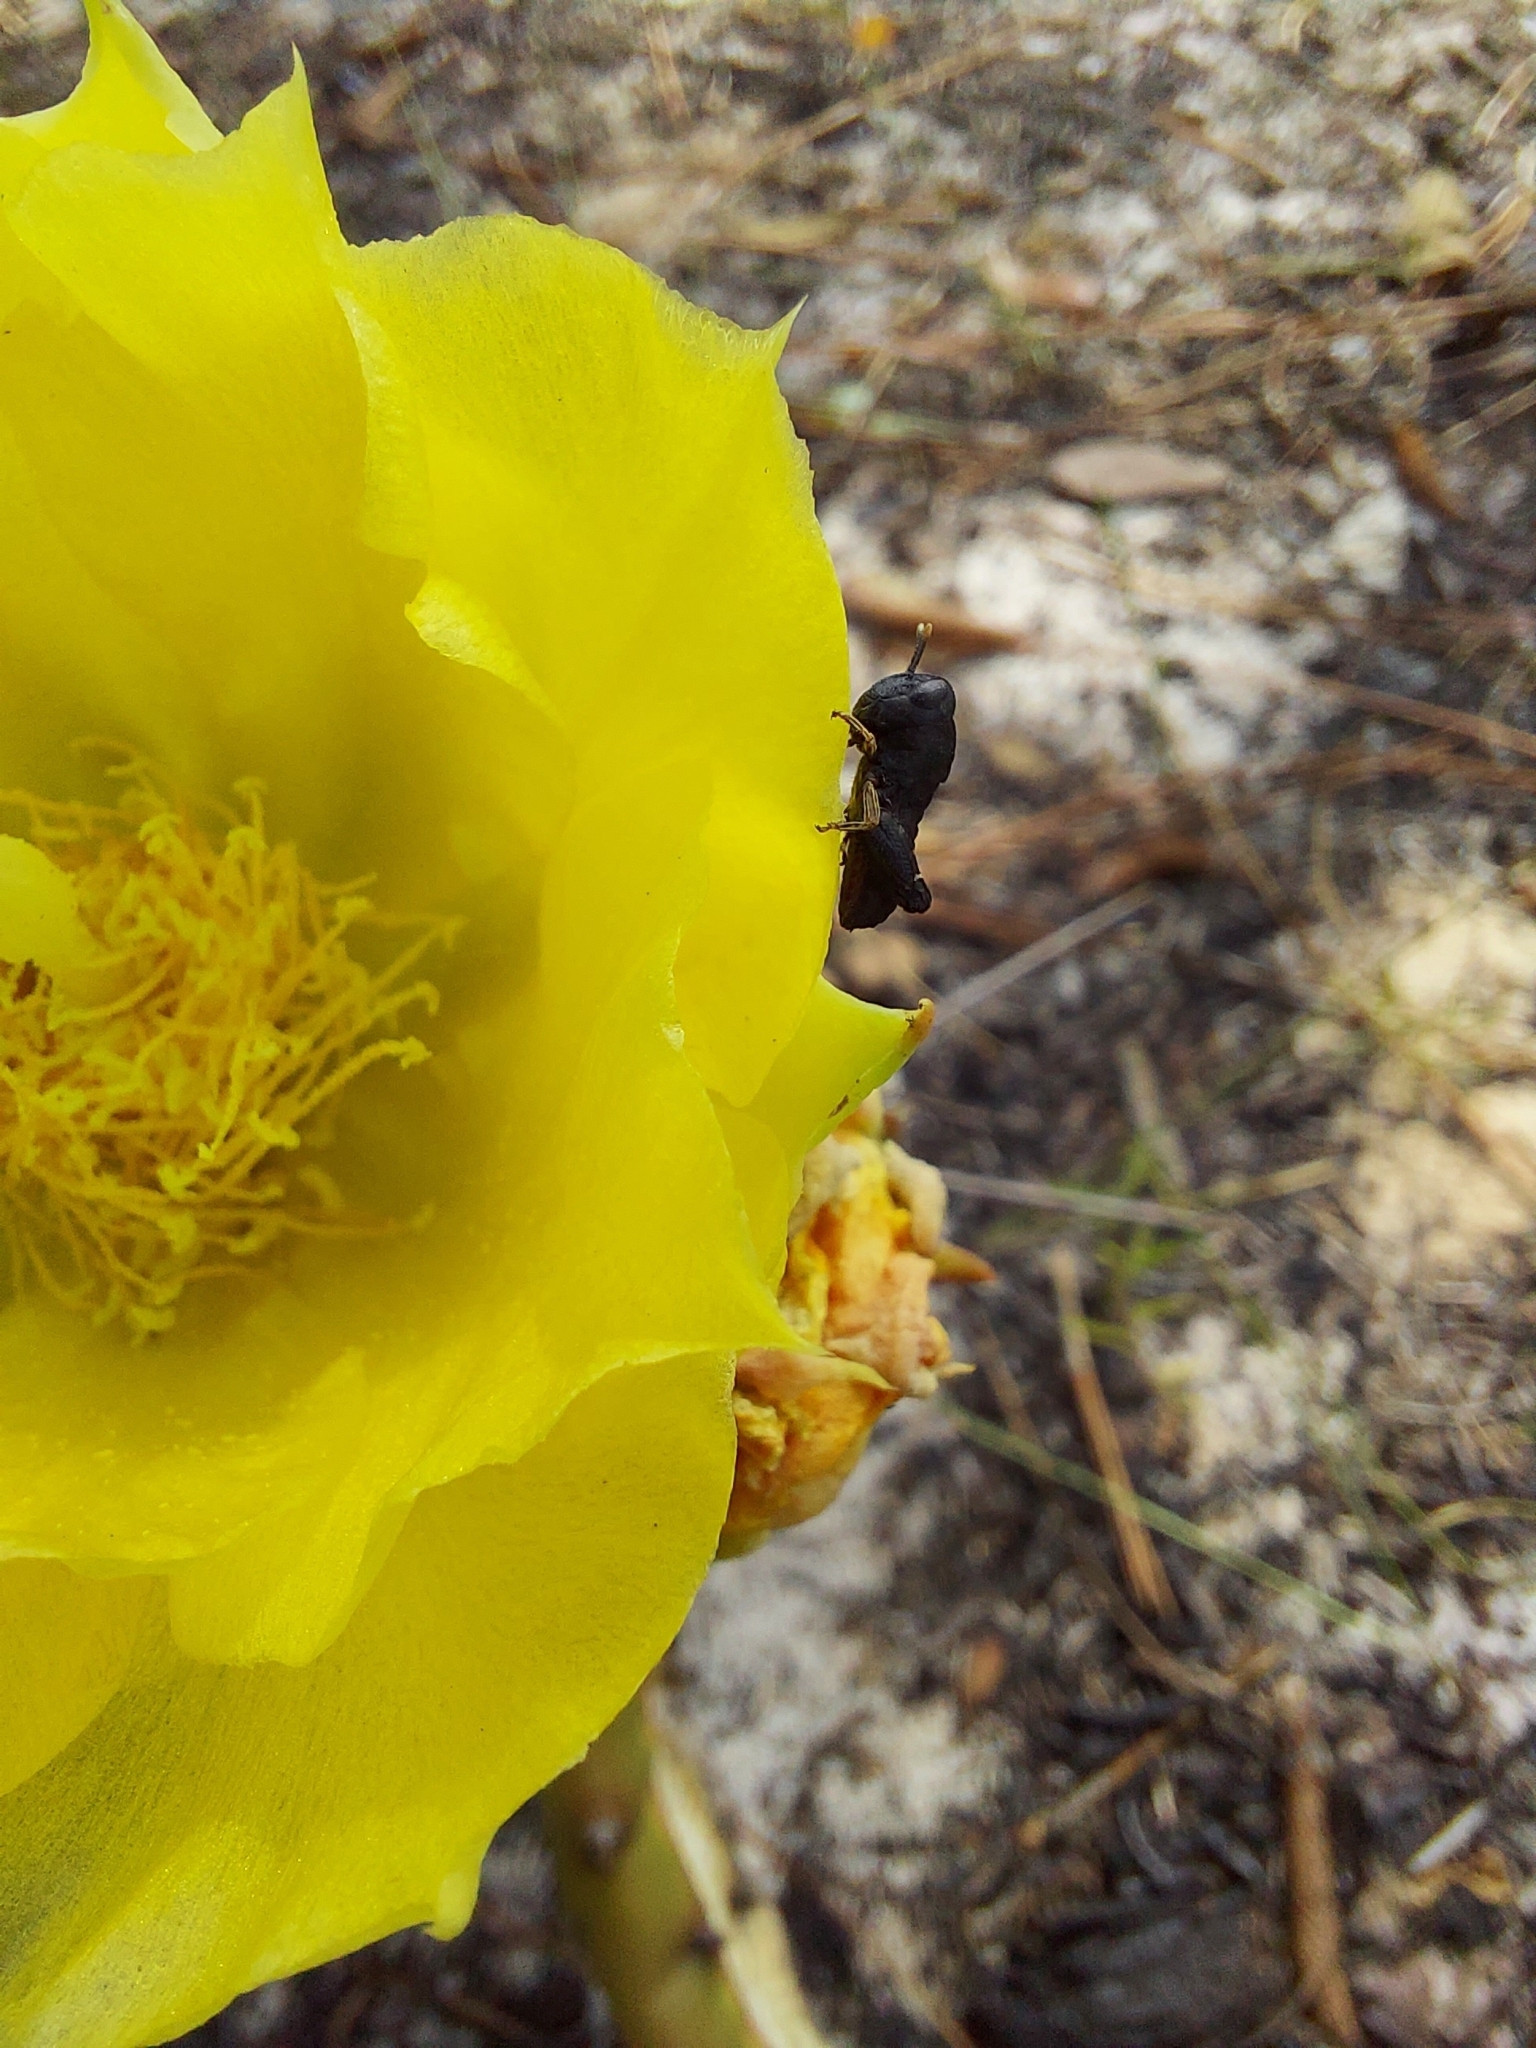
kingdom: Animalia
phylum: Arthropoda
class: Insecta
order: Orthoptera
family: Acrididae
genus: Arphia
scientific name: Arphia
